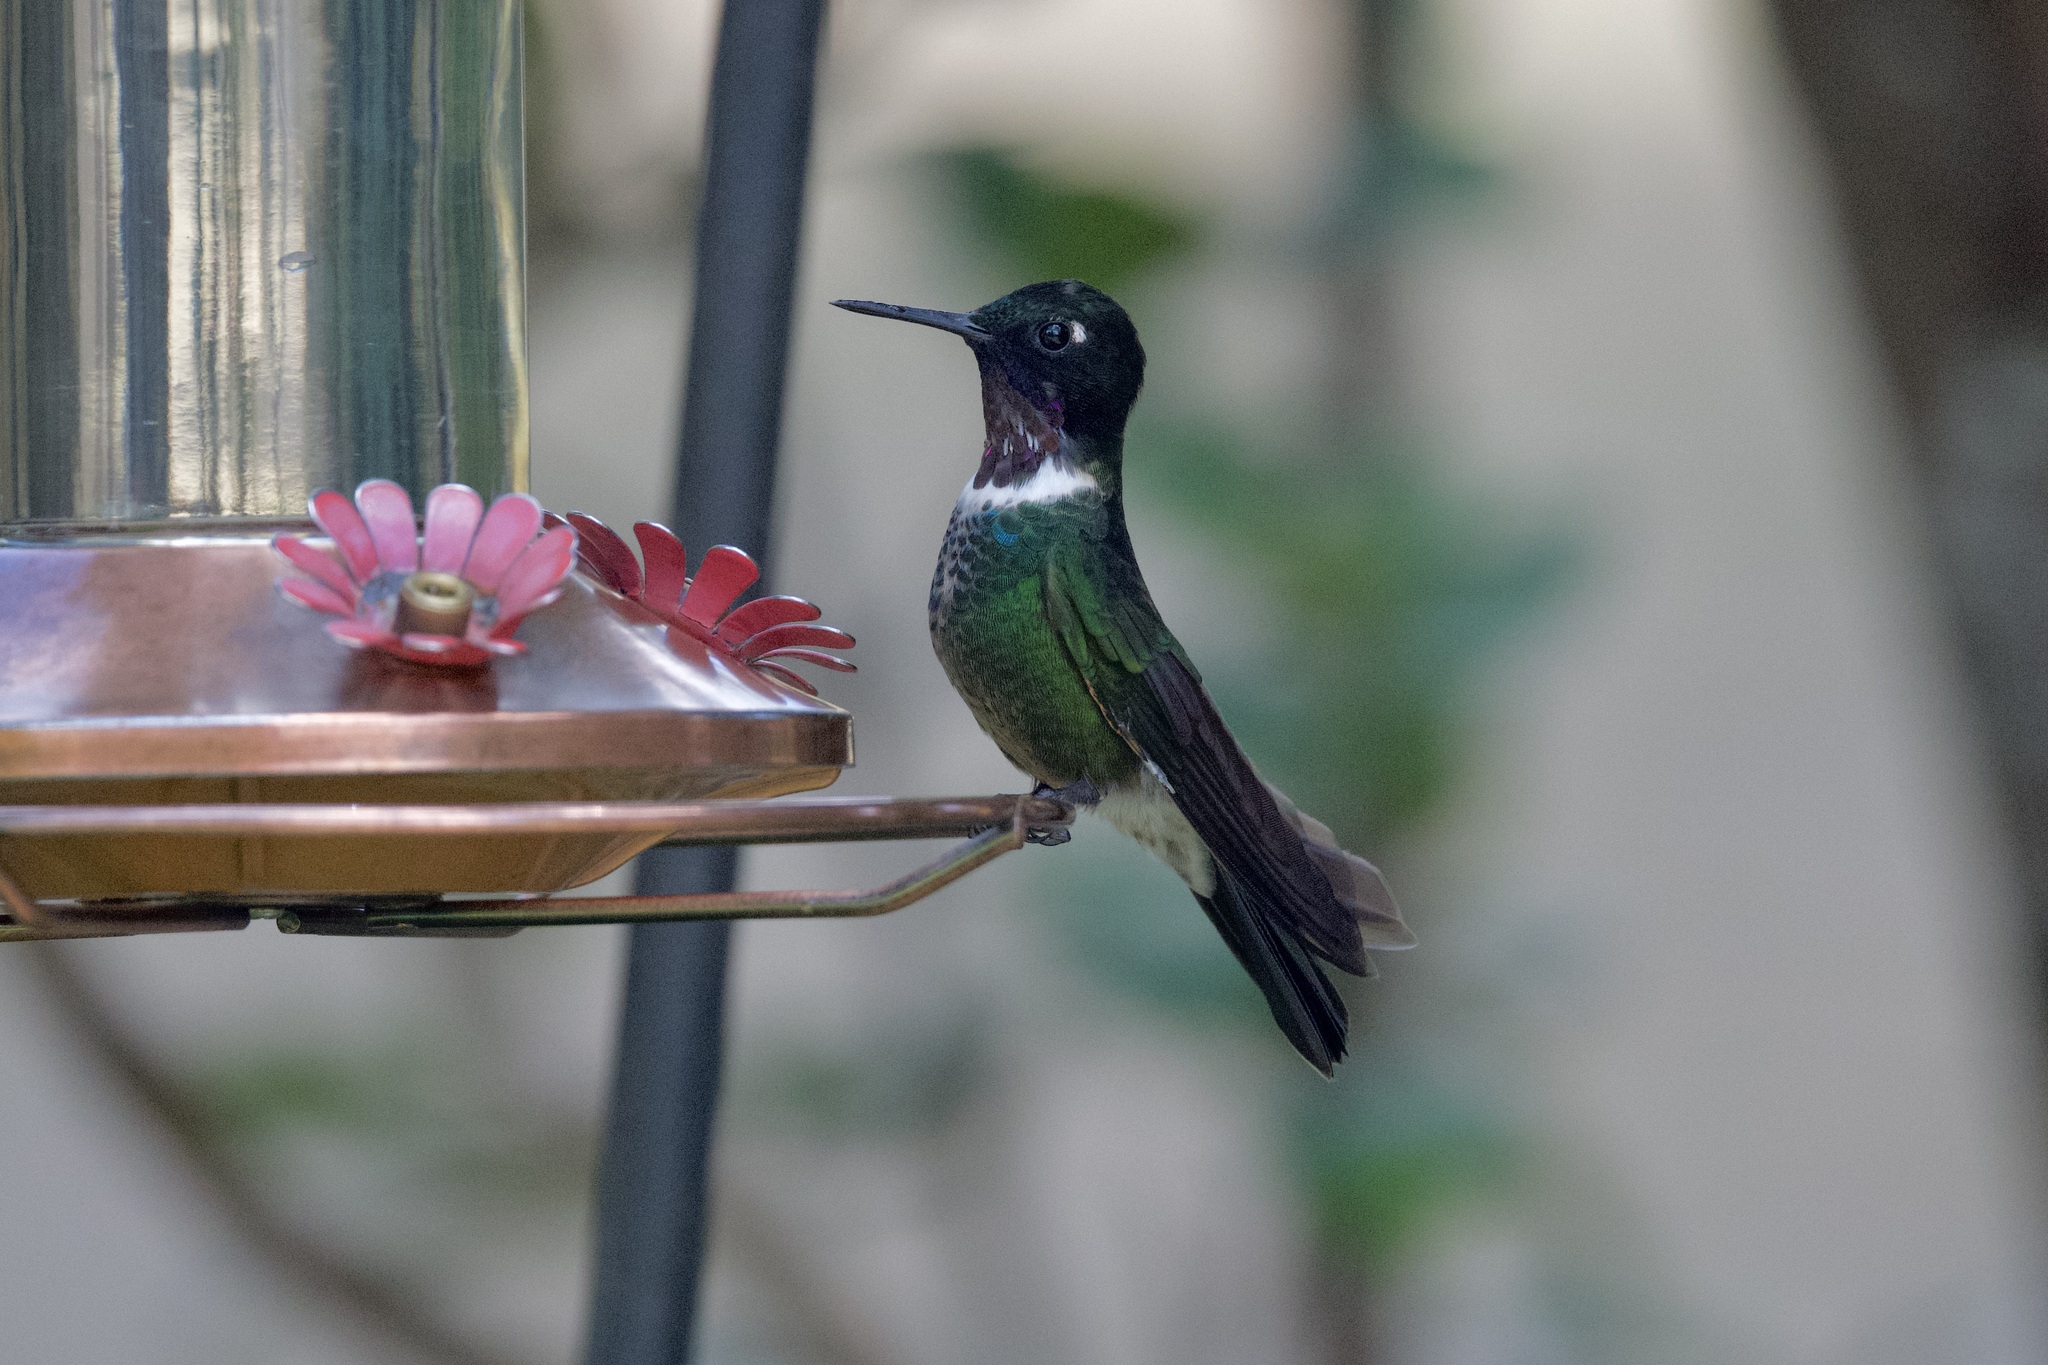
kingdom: Animalia
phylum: Chordata
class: Aves
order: Apodiformes
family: Trochilidae
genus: Heliangelus
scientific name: Heliangelus clarisse
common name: Longuemare's sunangel
